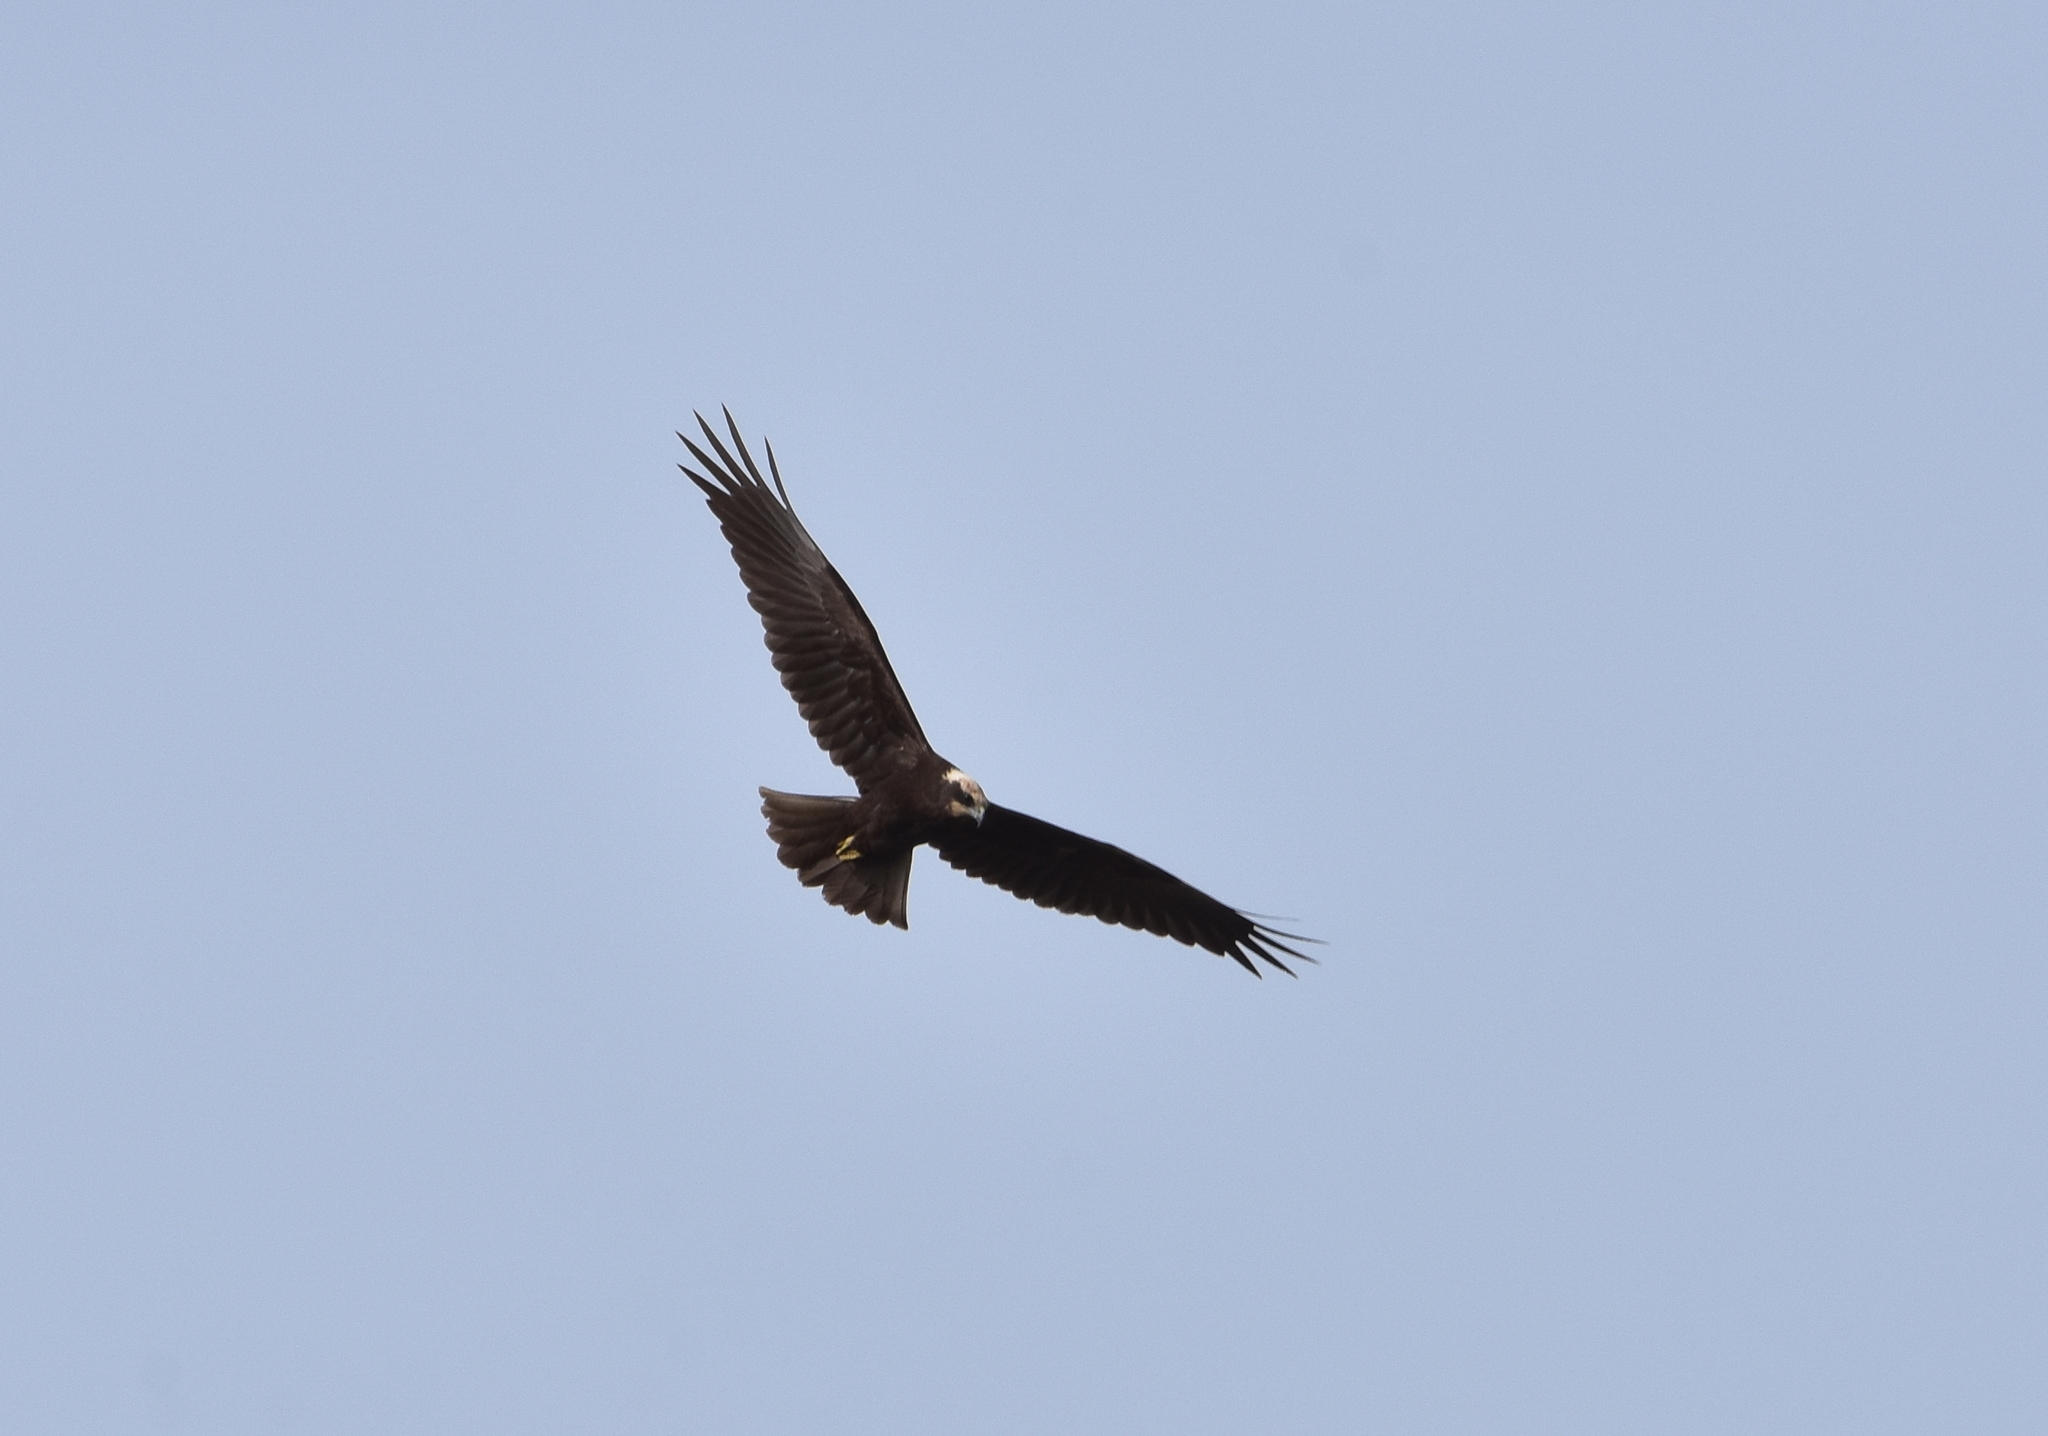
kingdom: Animalia
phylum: Chordata
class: Aves
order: Accipitriformes
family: Accipitridae
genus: Circus
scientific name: Circus aeruginosus
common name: Western marsh harrier
